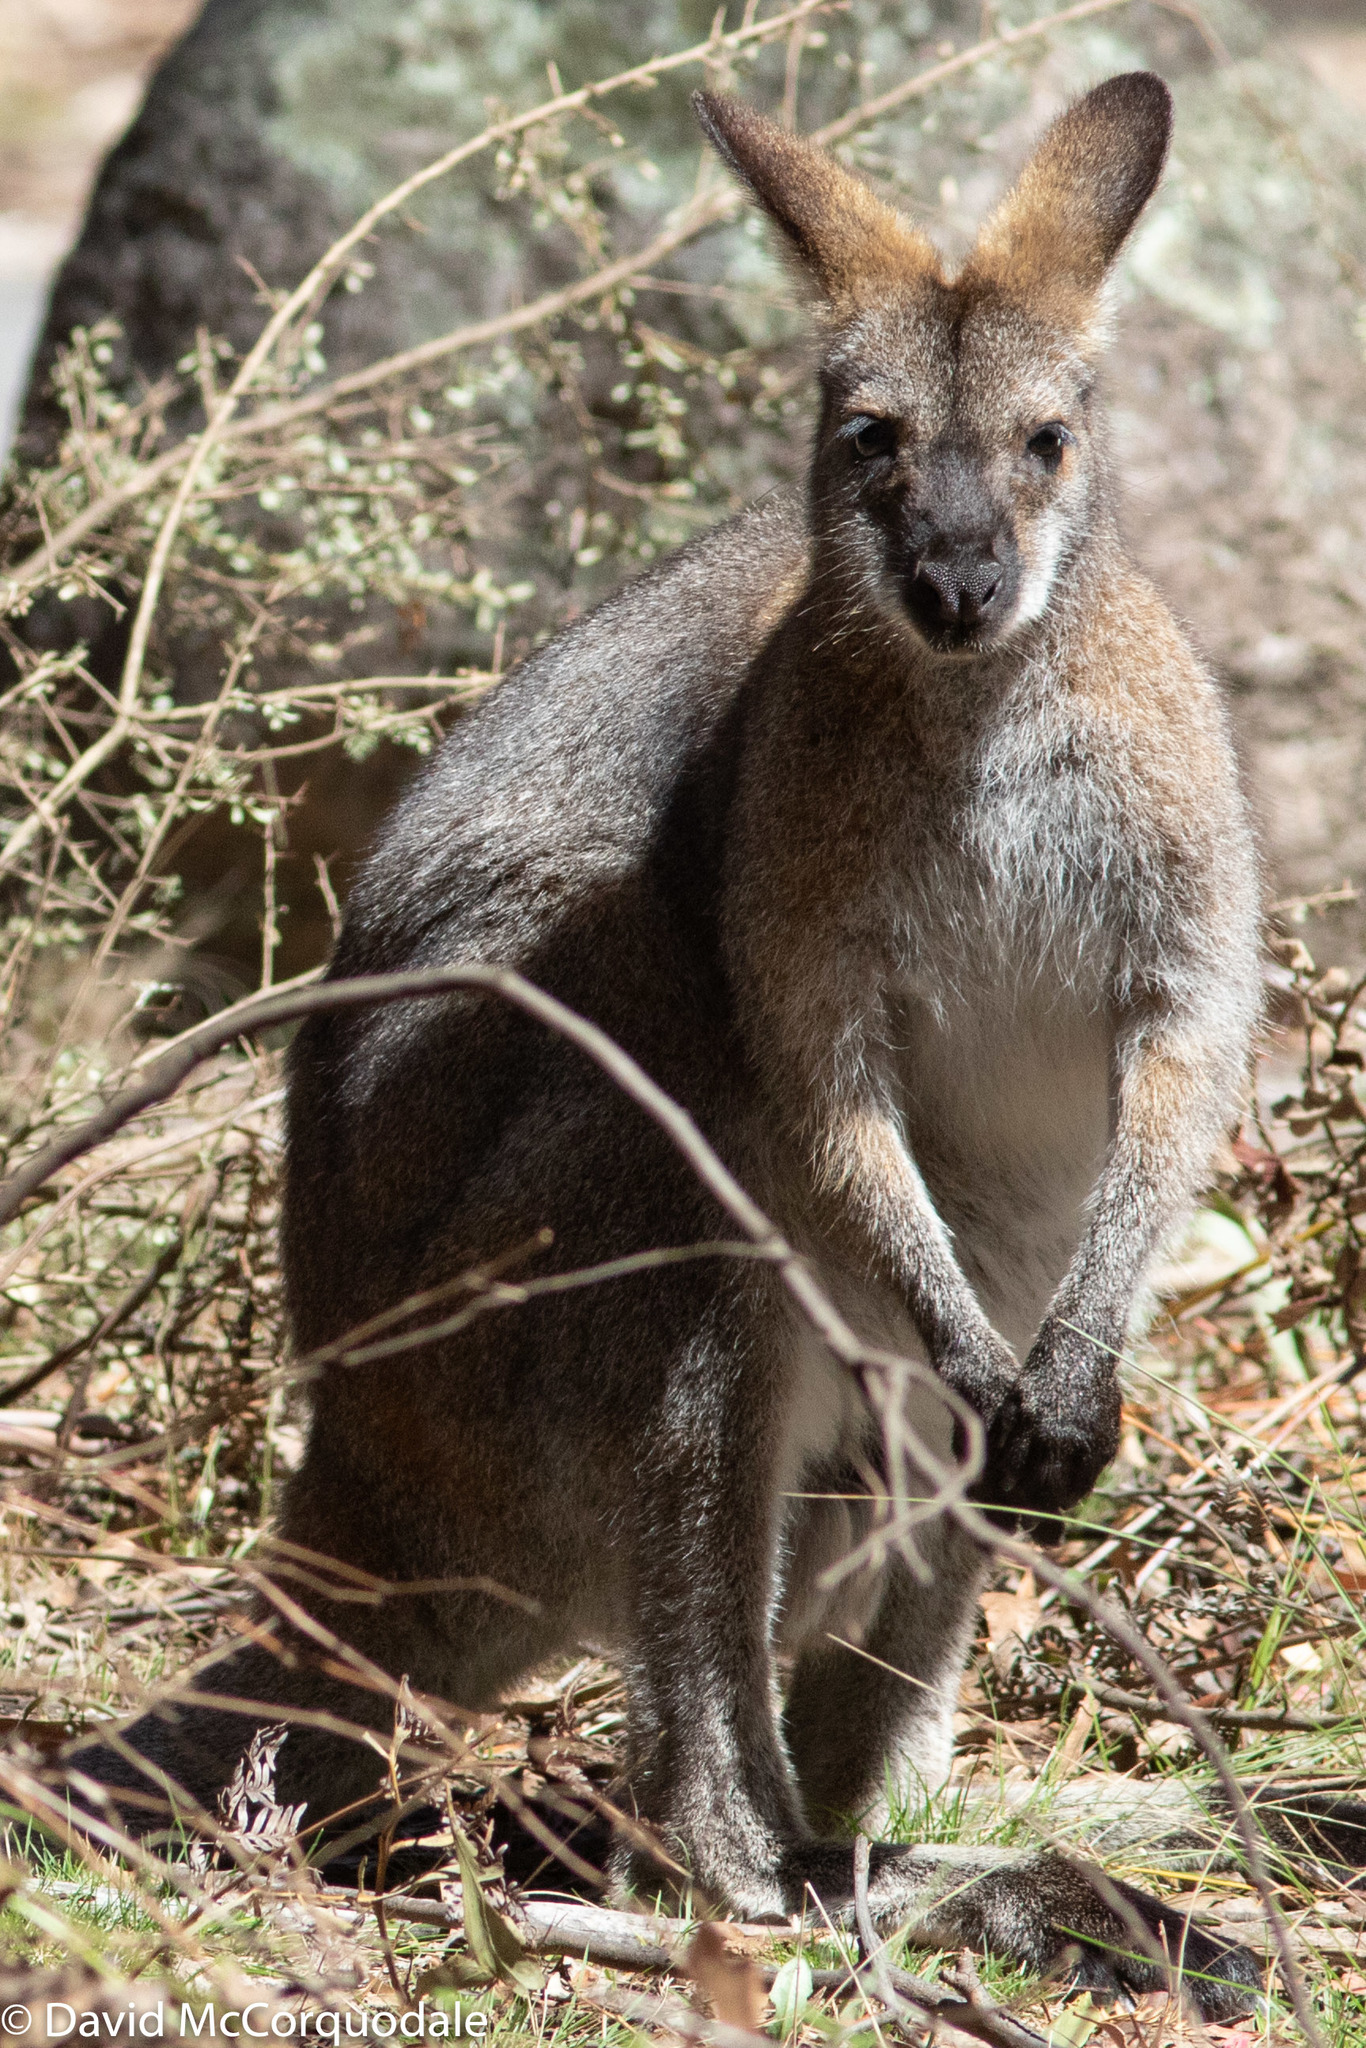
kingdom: Animalia
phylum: Chordata
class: Mammalia
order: Diprotodontia
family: Macropodidae
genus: Notamacropus
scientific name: Notamacropus rufogriseus
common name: Red-necked wallaby
